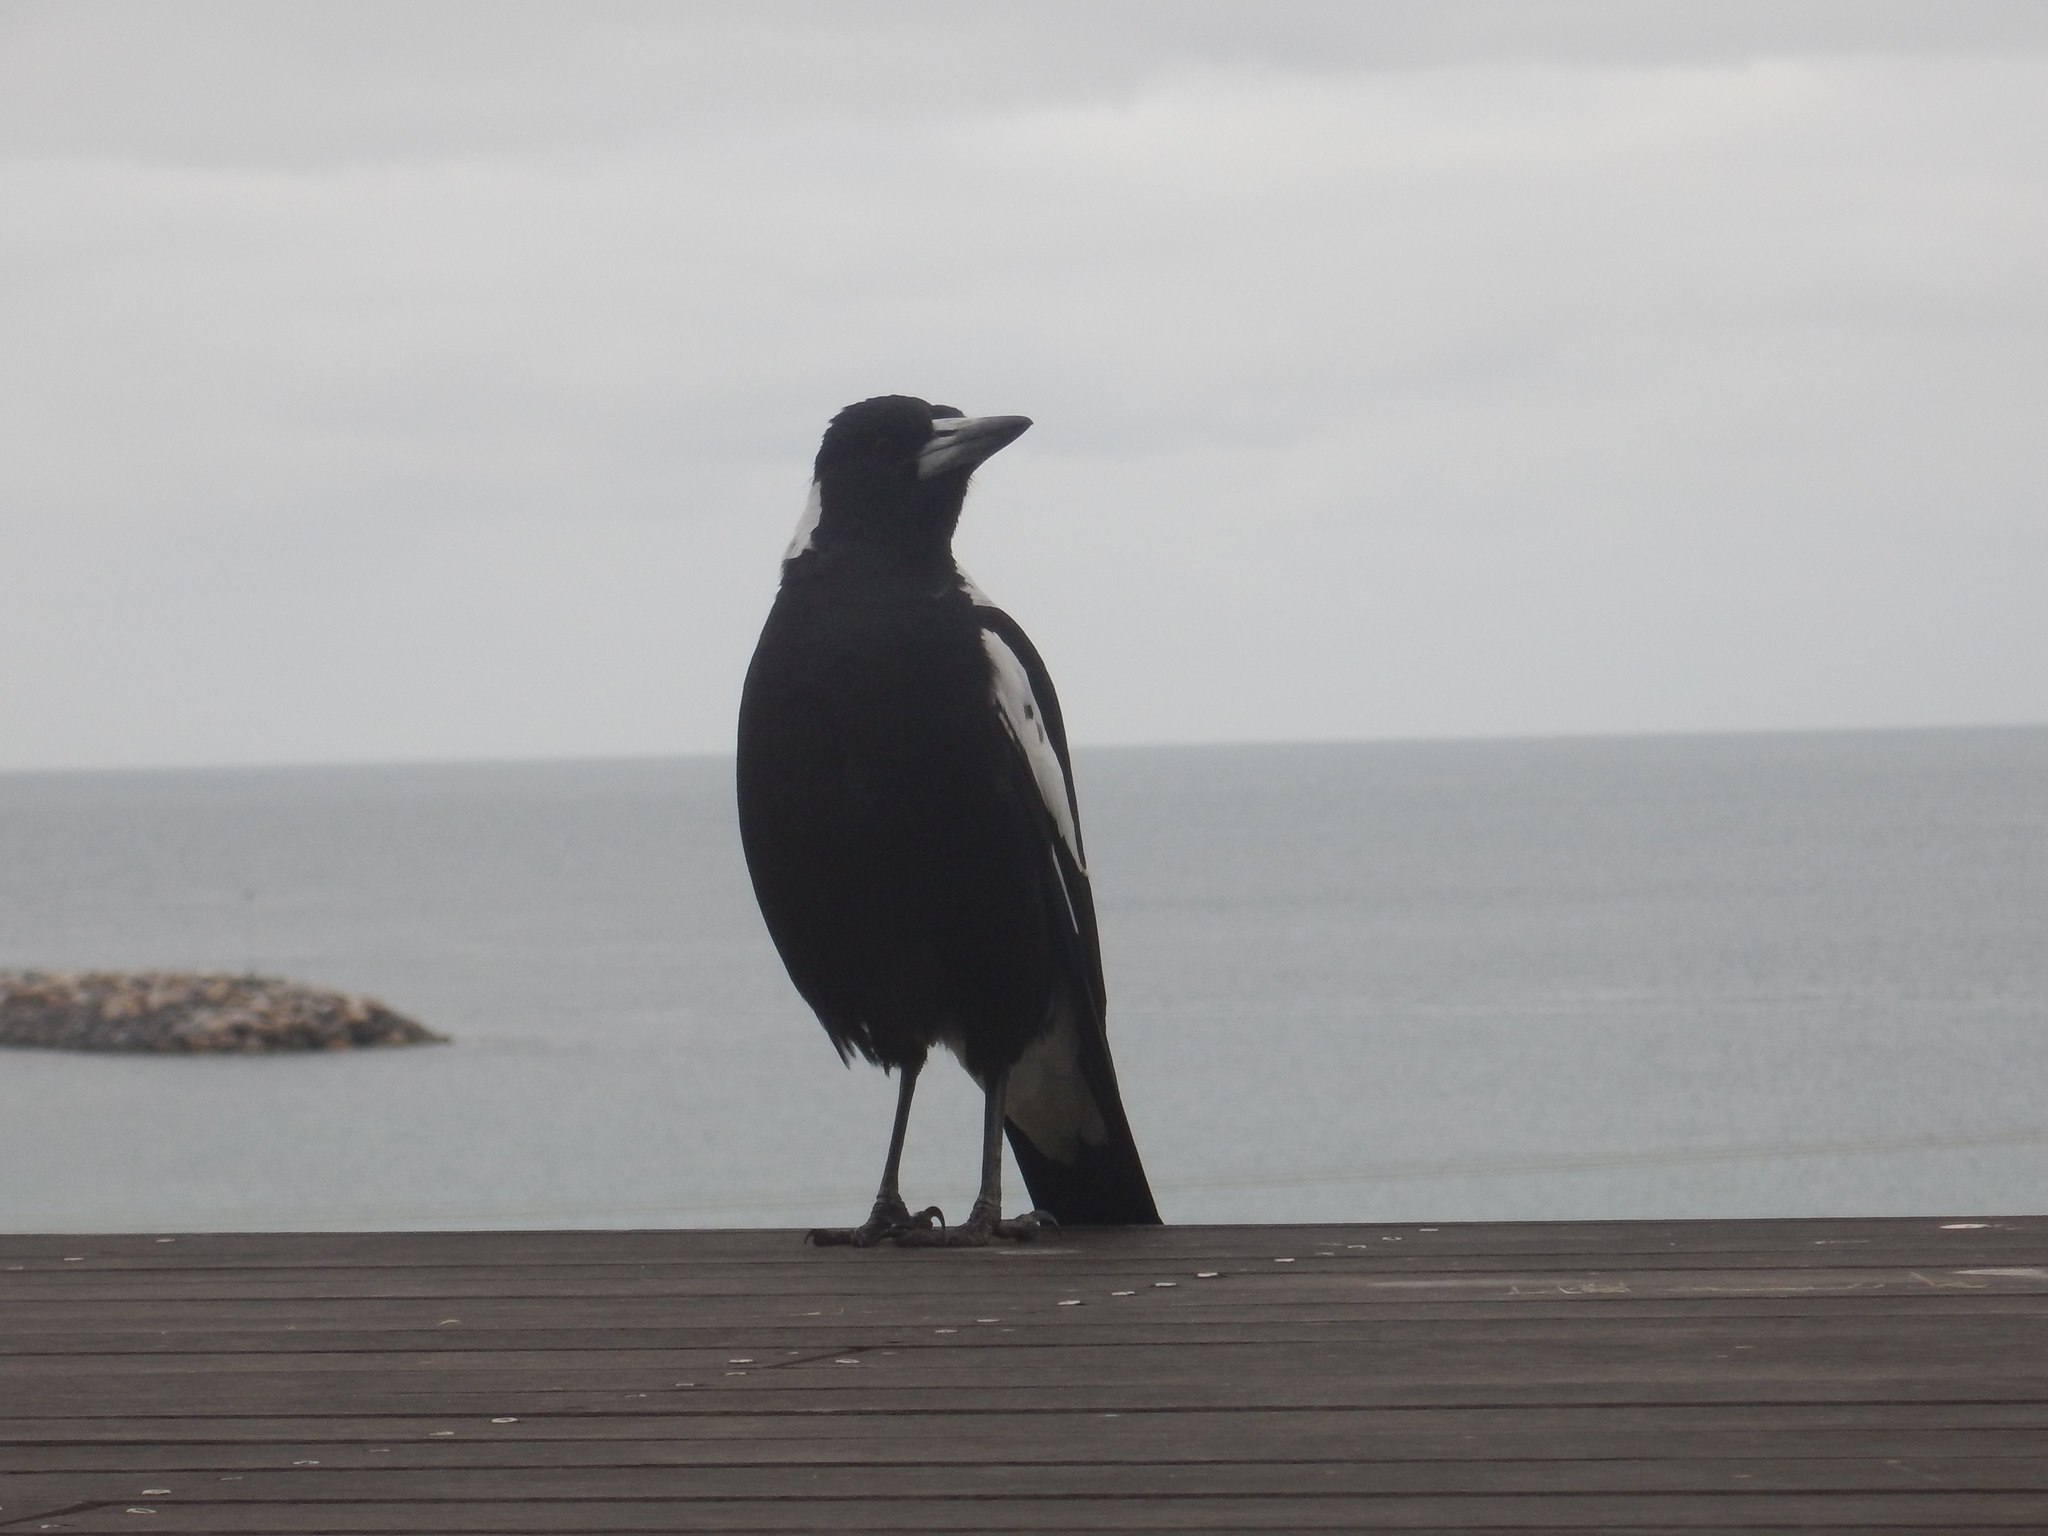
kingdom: Animalia
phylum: Chordata
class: Aves
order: Passeriformes
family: Cracticidae
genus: Gymnorhina
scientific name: Gymnorhina tibicen
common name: Australian magpie
